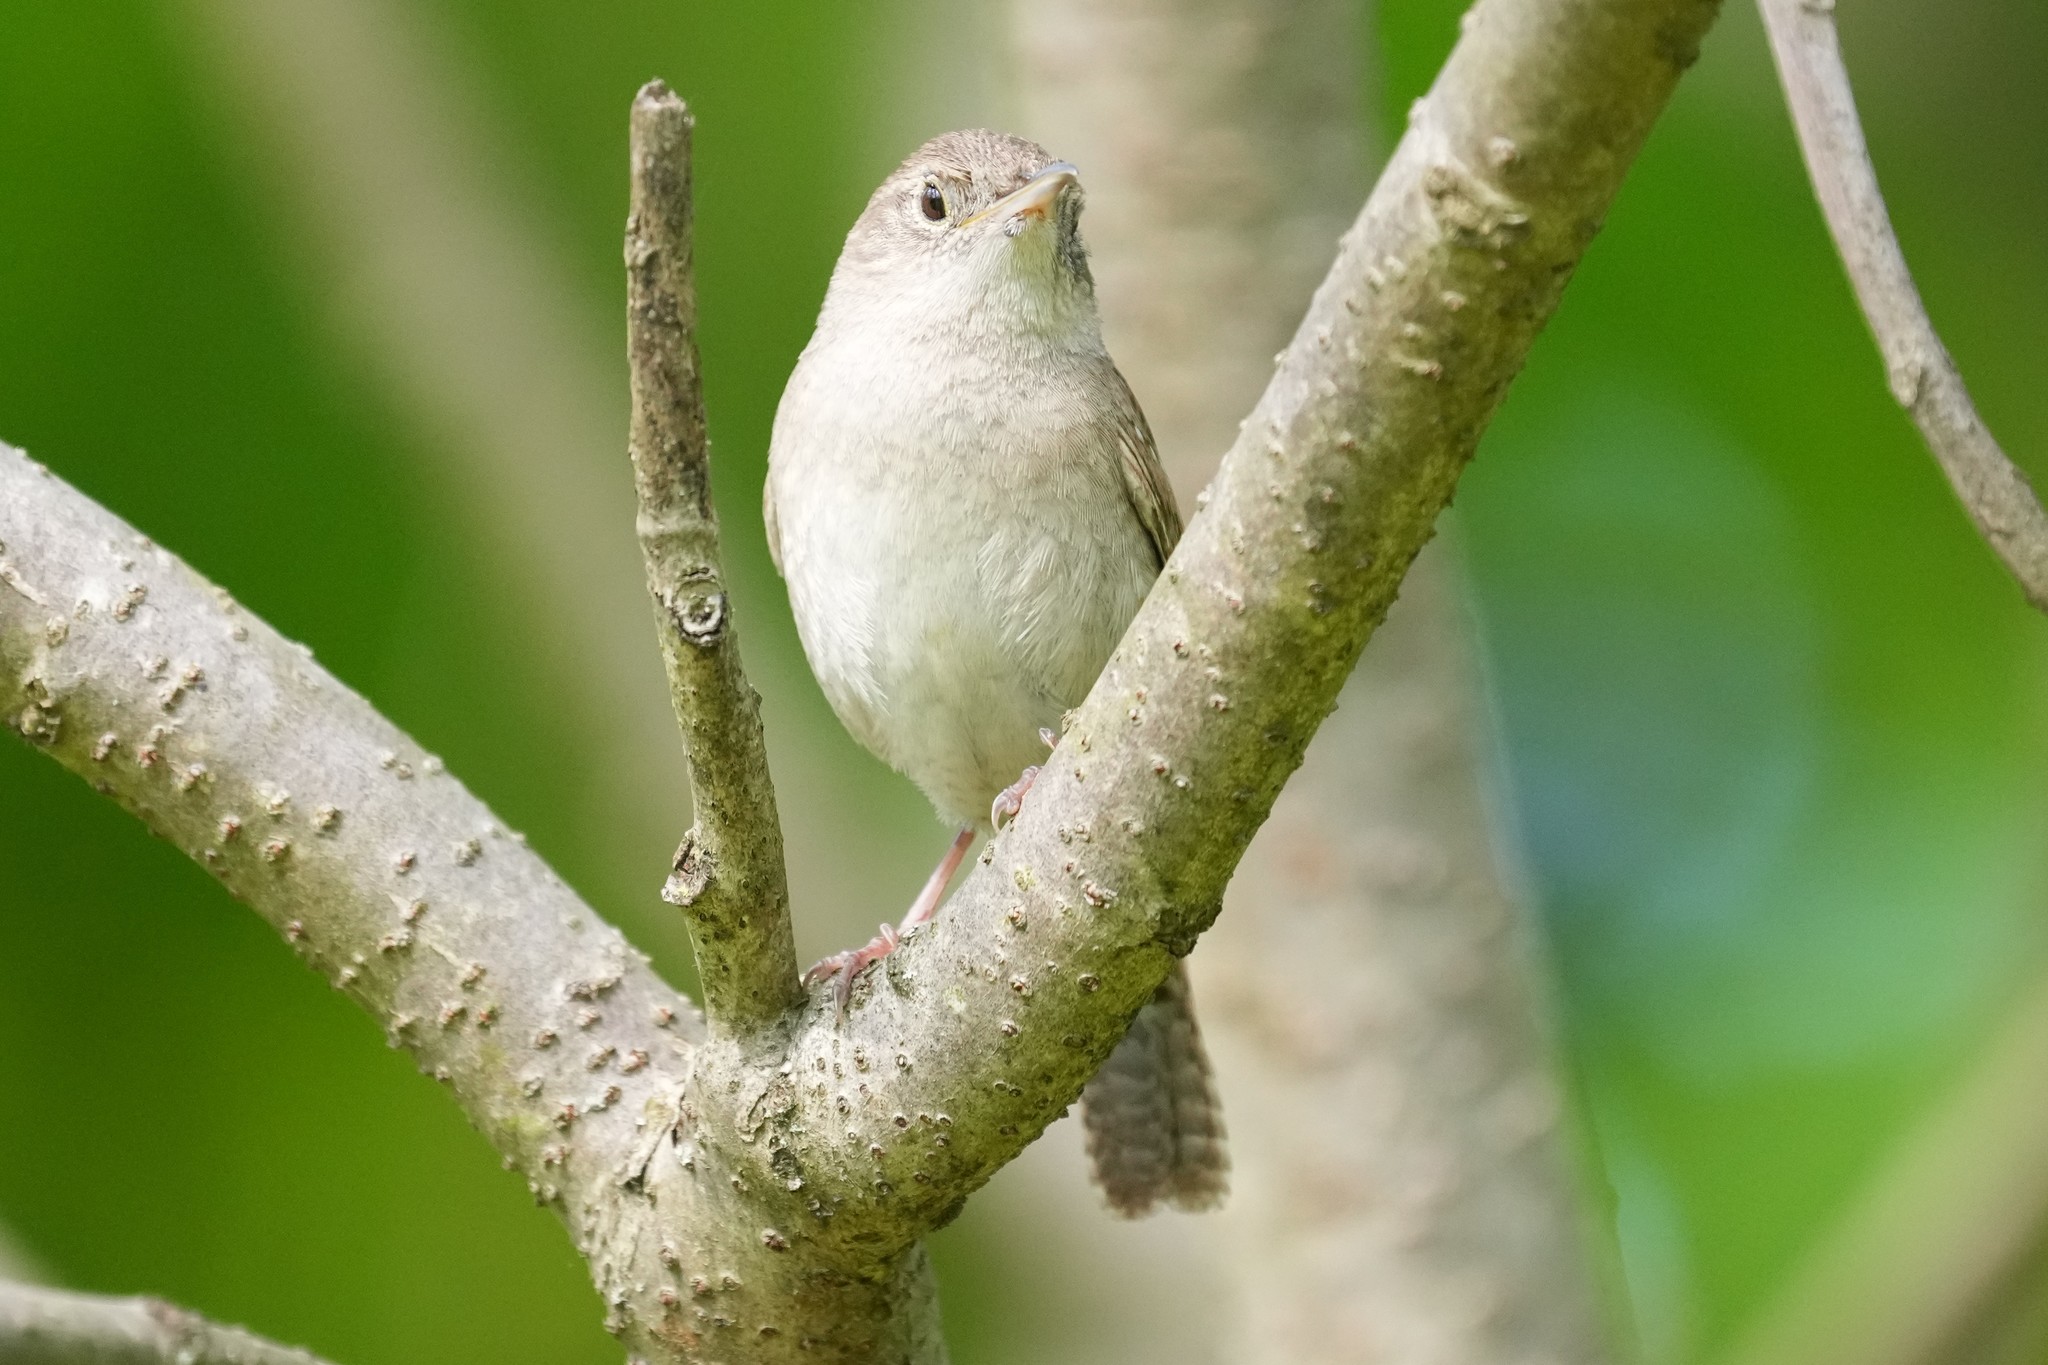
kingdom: Animalia
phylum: Chordata
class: Aves
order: Passeriformes
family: Troglodytidae
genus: Troglodytes
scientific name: Troglodytes aedon
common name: House wren
